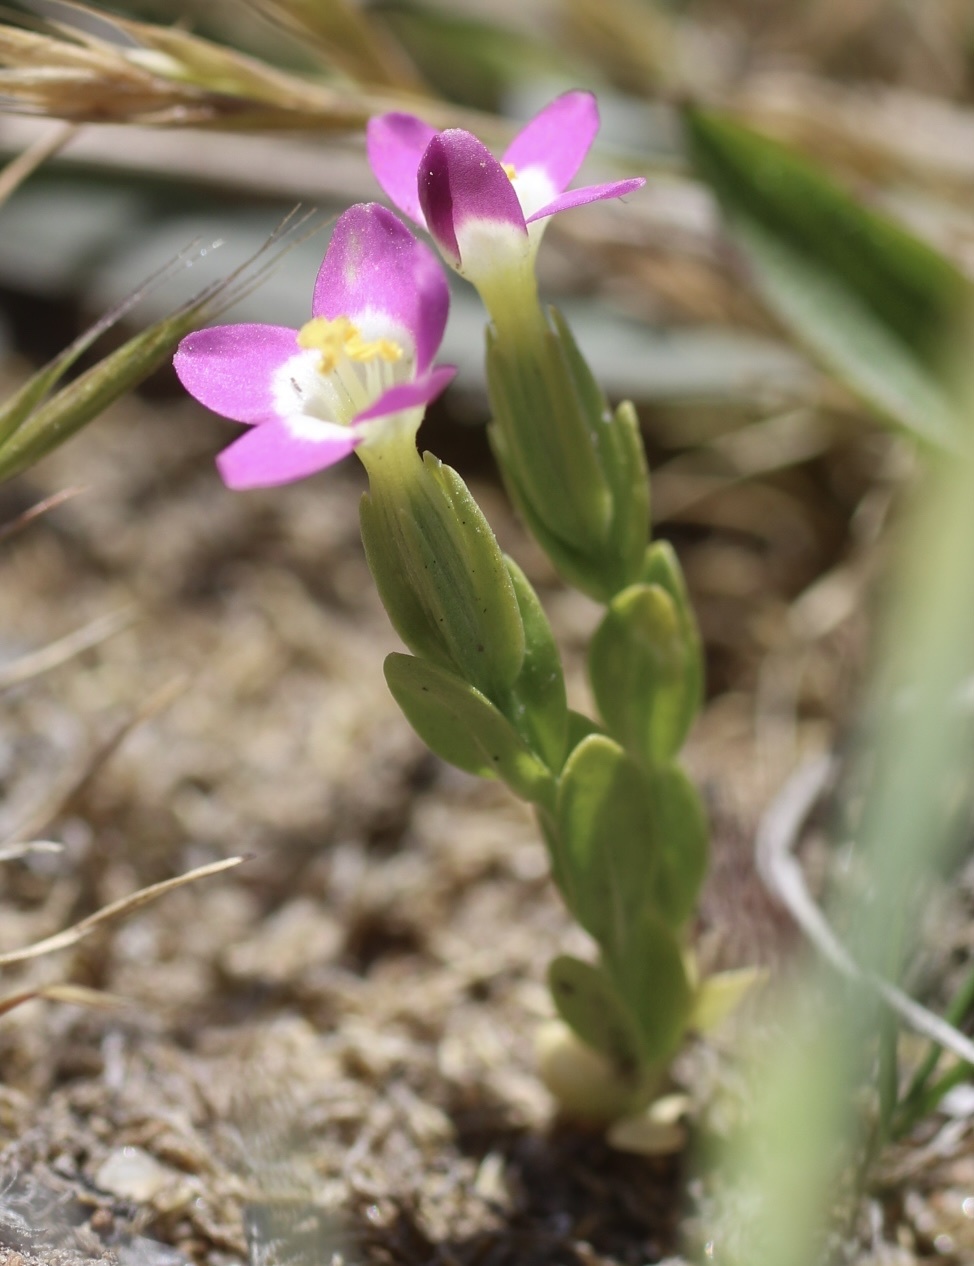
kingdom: Plantae
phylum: Tracheophyta
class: Magnoliopsida
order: Gentianales
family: Gentianaceae
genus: Zeltnera
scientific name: Zeltnera davyi
